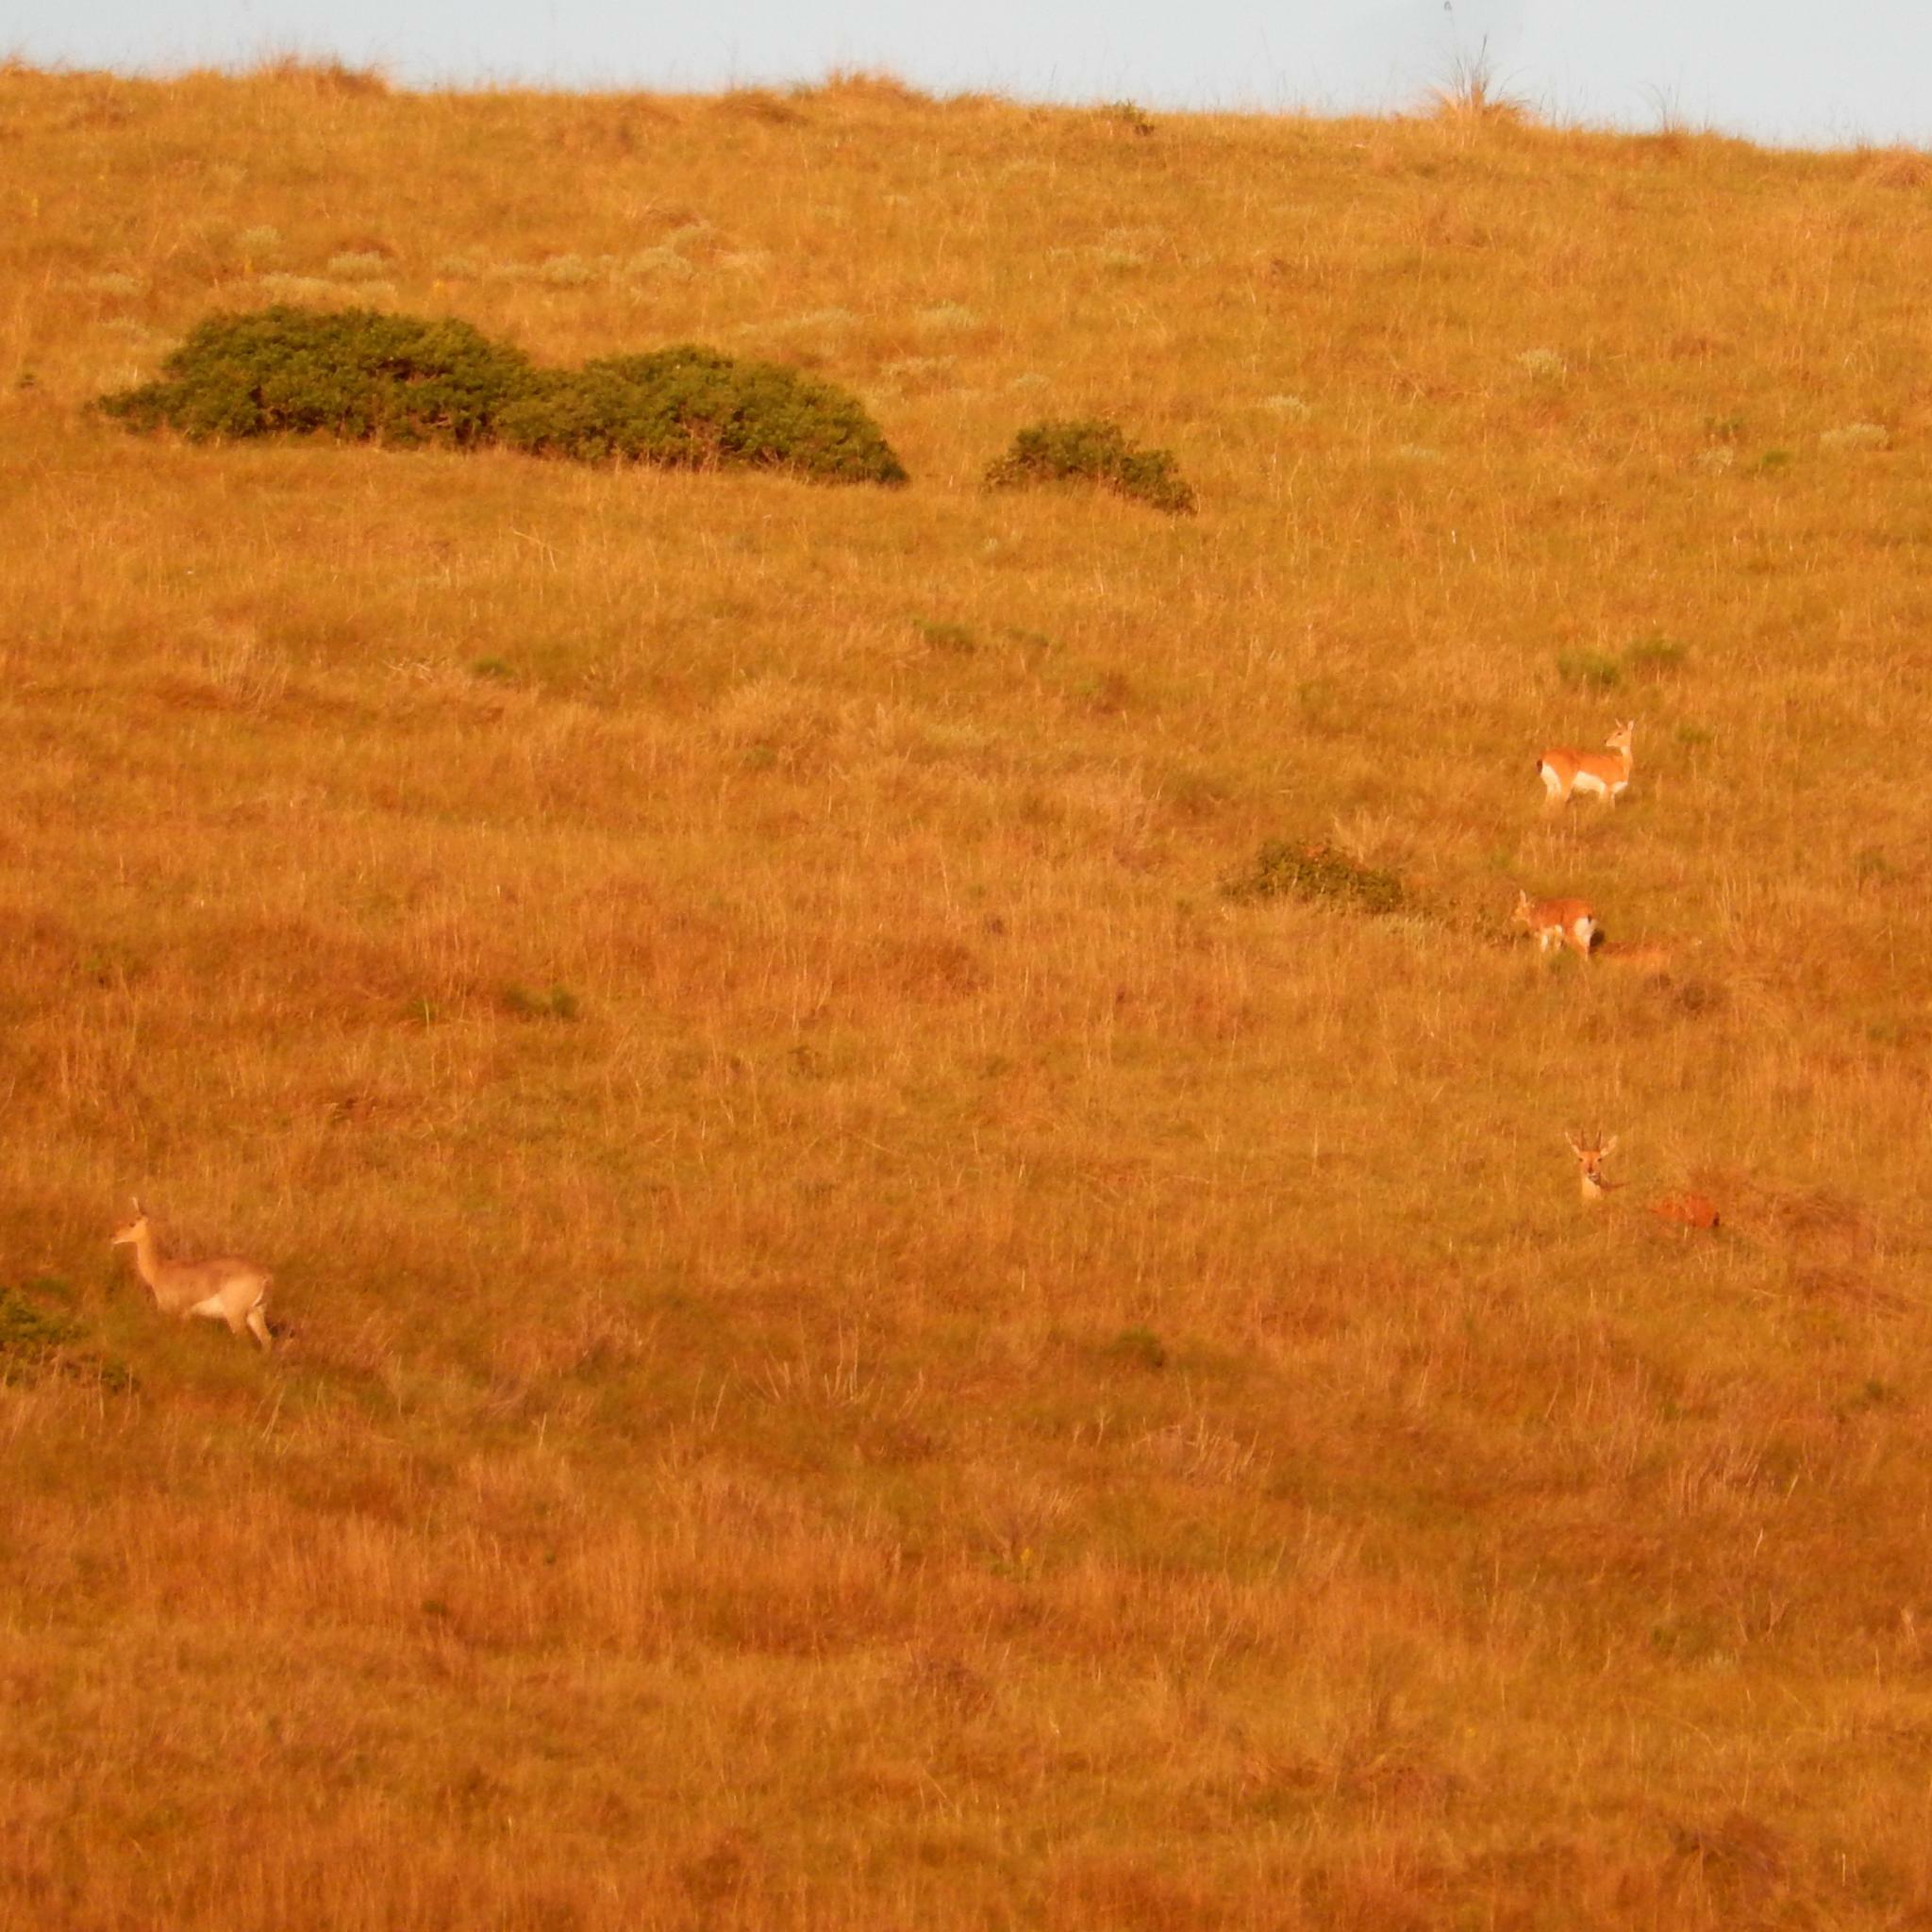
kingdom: Animalia
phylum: Chordata
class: Mammalia
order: Artiodactyla
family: Bovidae
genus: Ourebia
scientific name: Ourebia ourebi
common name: Oribi
